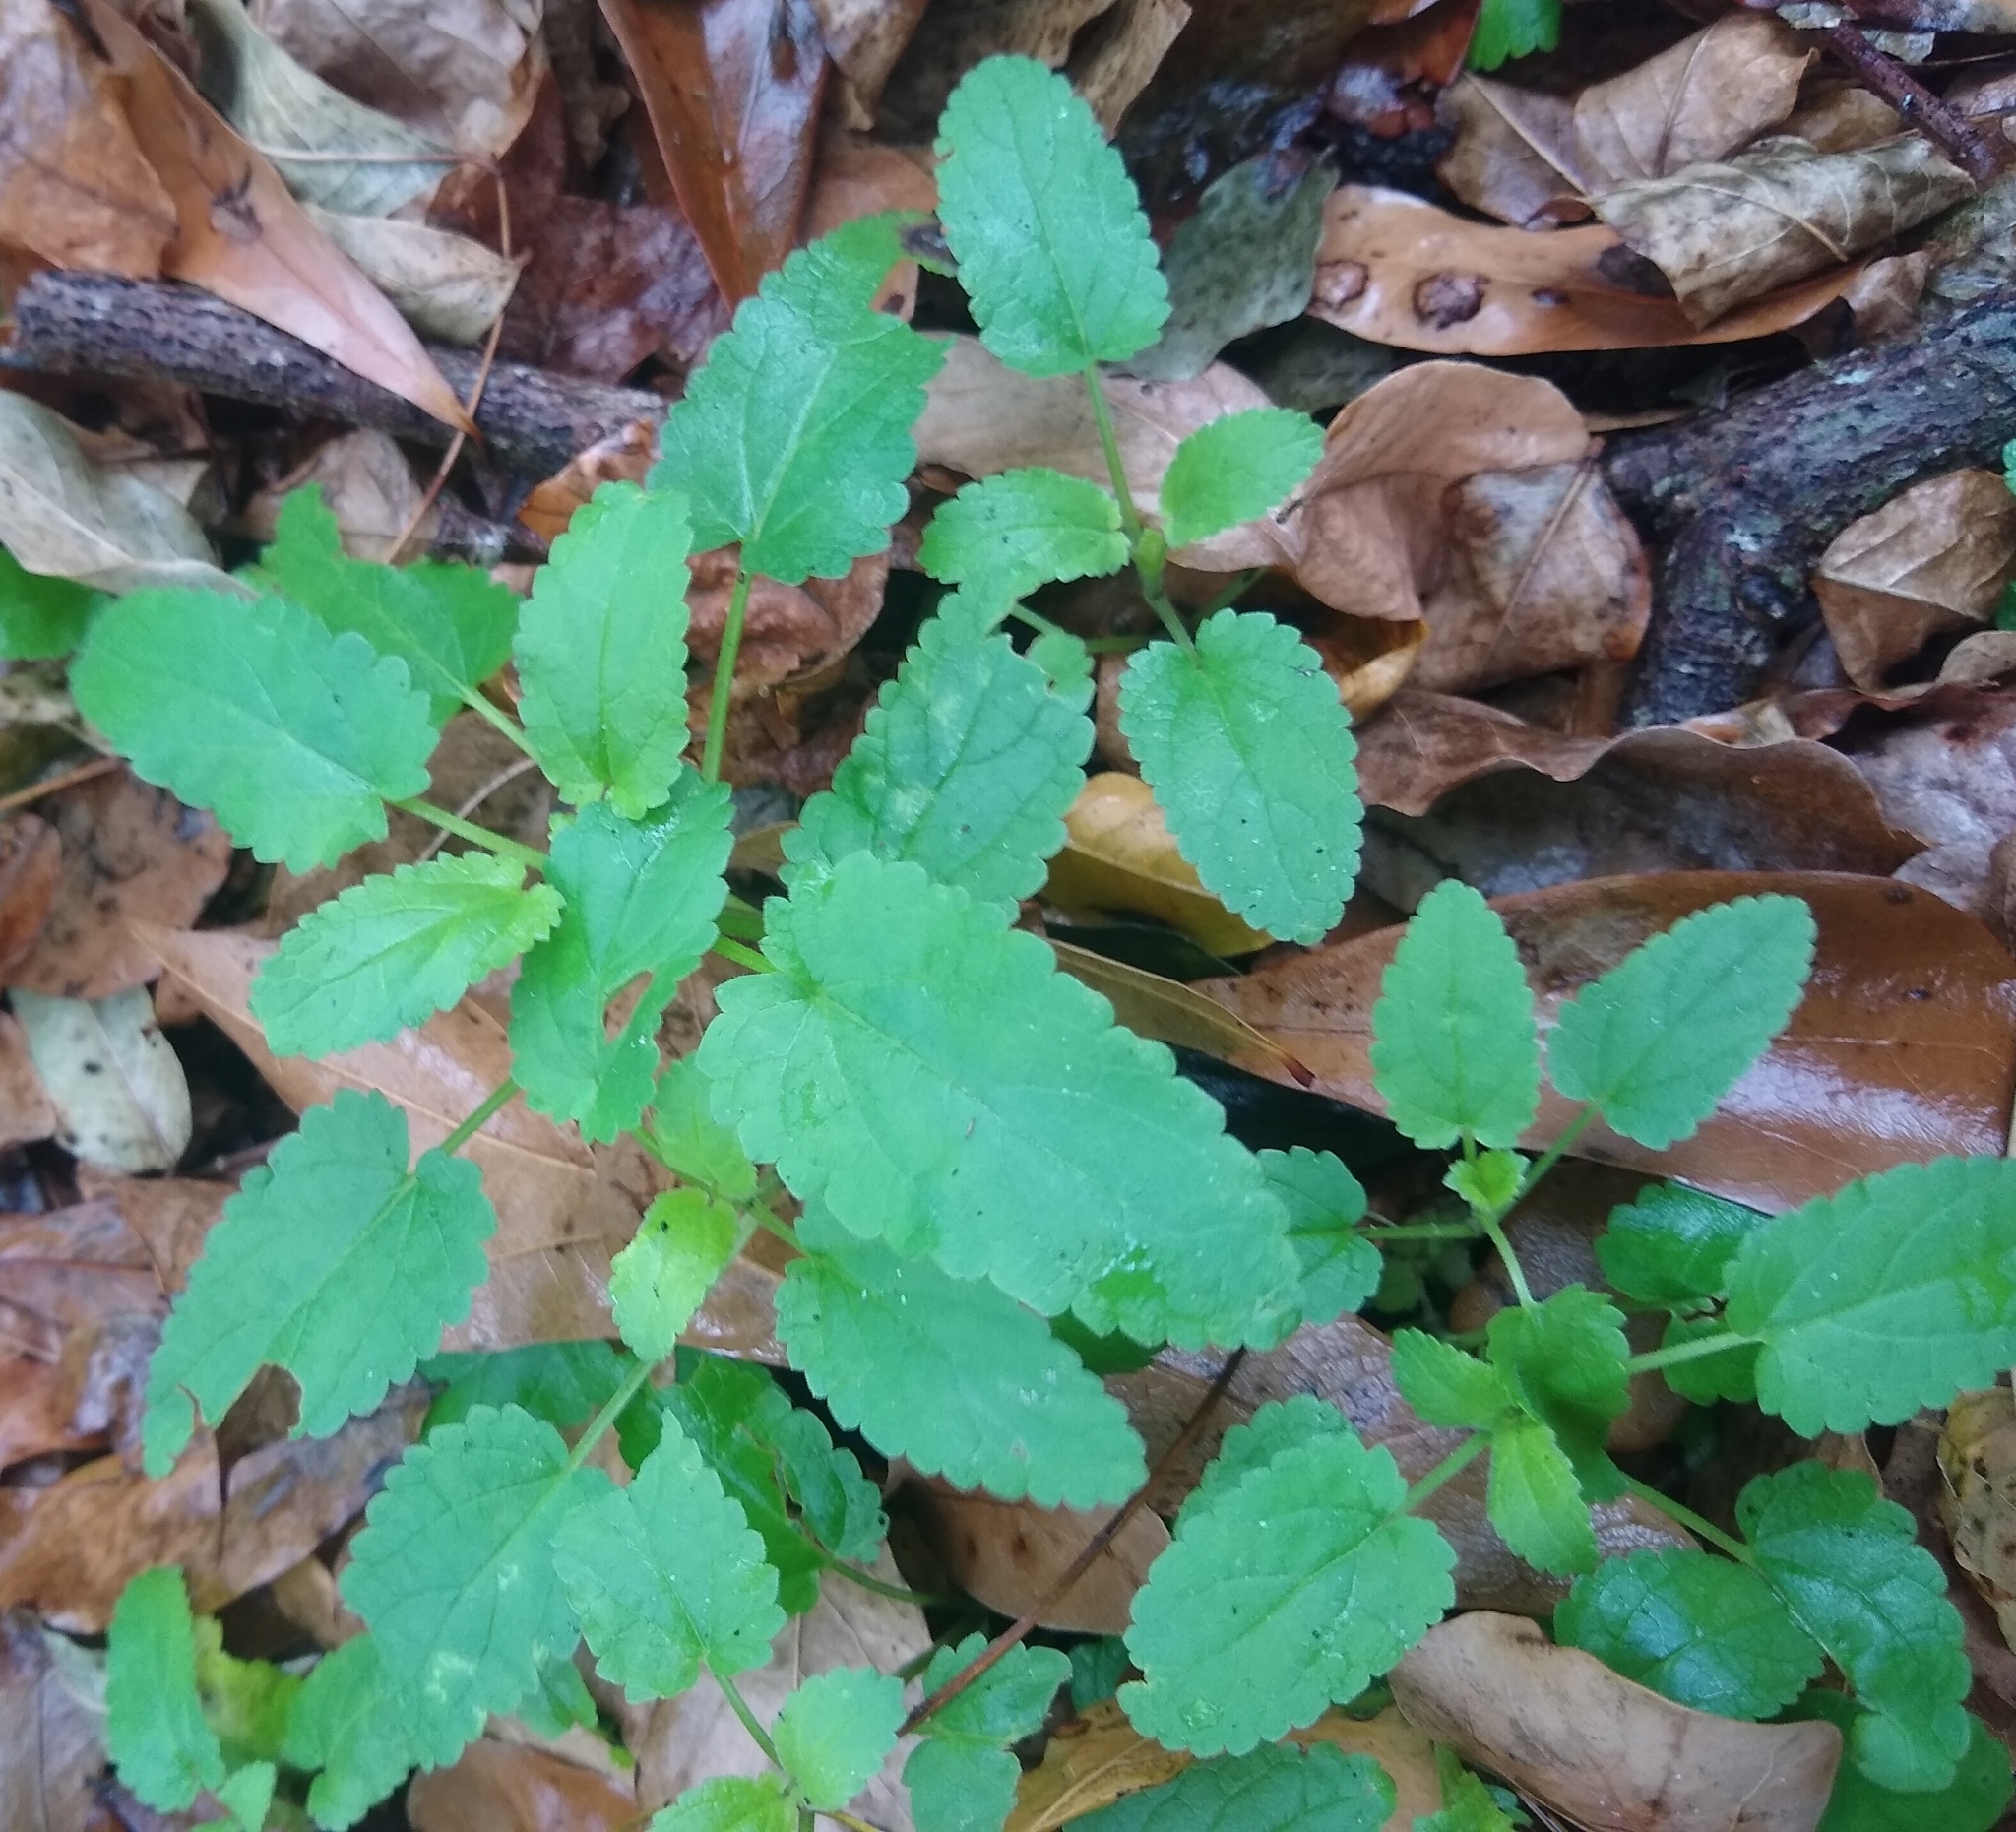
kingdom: Plantae
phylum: Tracheophyta
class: Magnoliopsida
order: Lamiales
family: Lamiaceae
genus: Stachys
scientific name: Stachys floridana
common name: Florida betony
